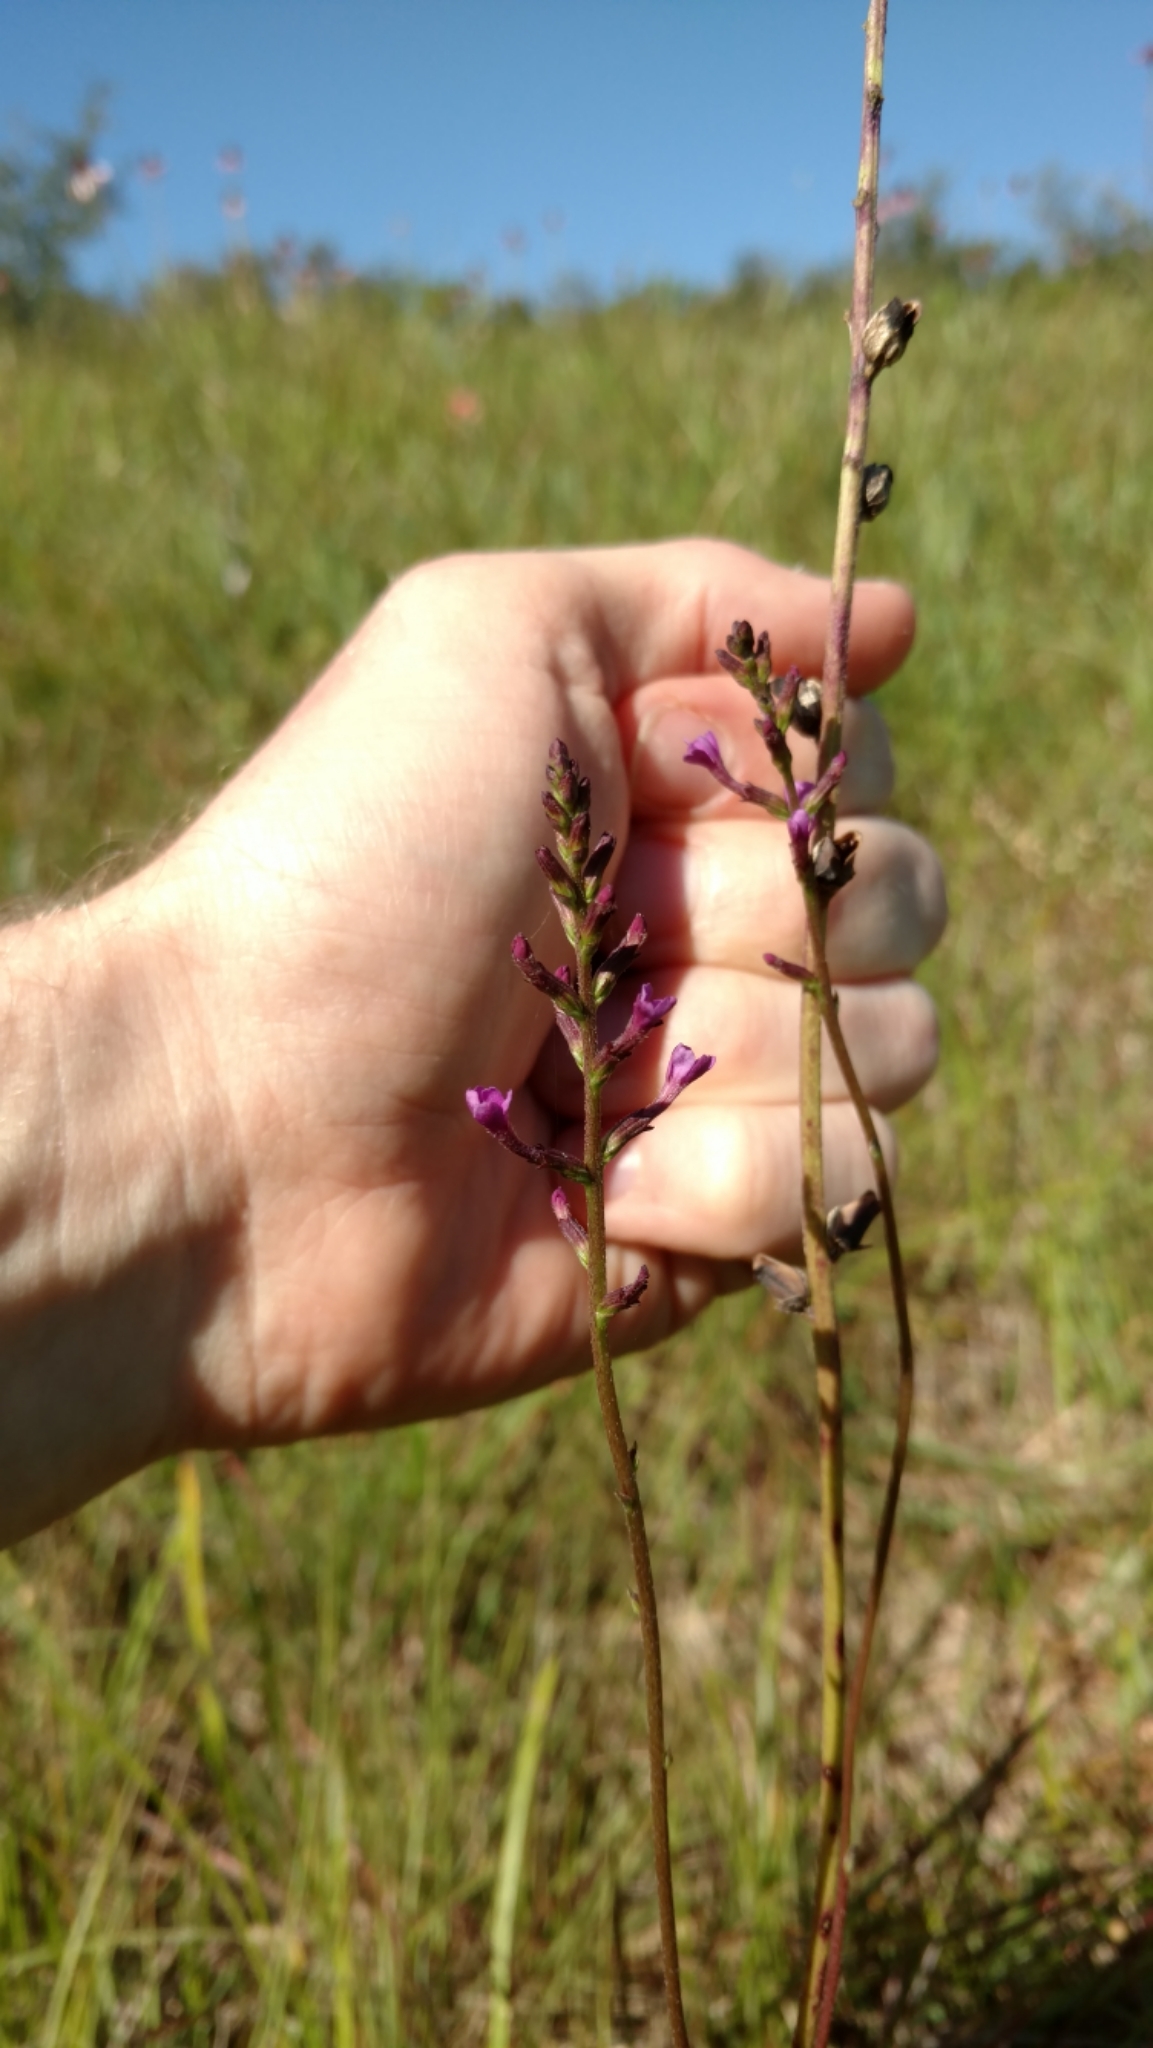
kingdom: Plantae
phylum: Tracheophyta
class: Magnoliopsida
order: Lamiales
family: Orobanchaceae
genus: Buchnera
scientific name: Buchnera floridana
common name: Florida bluehearts
